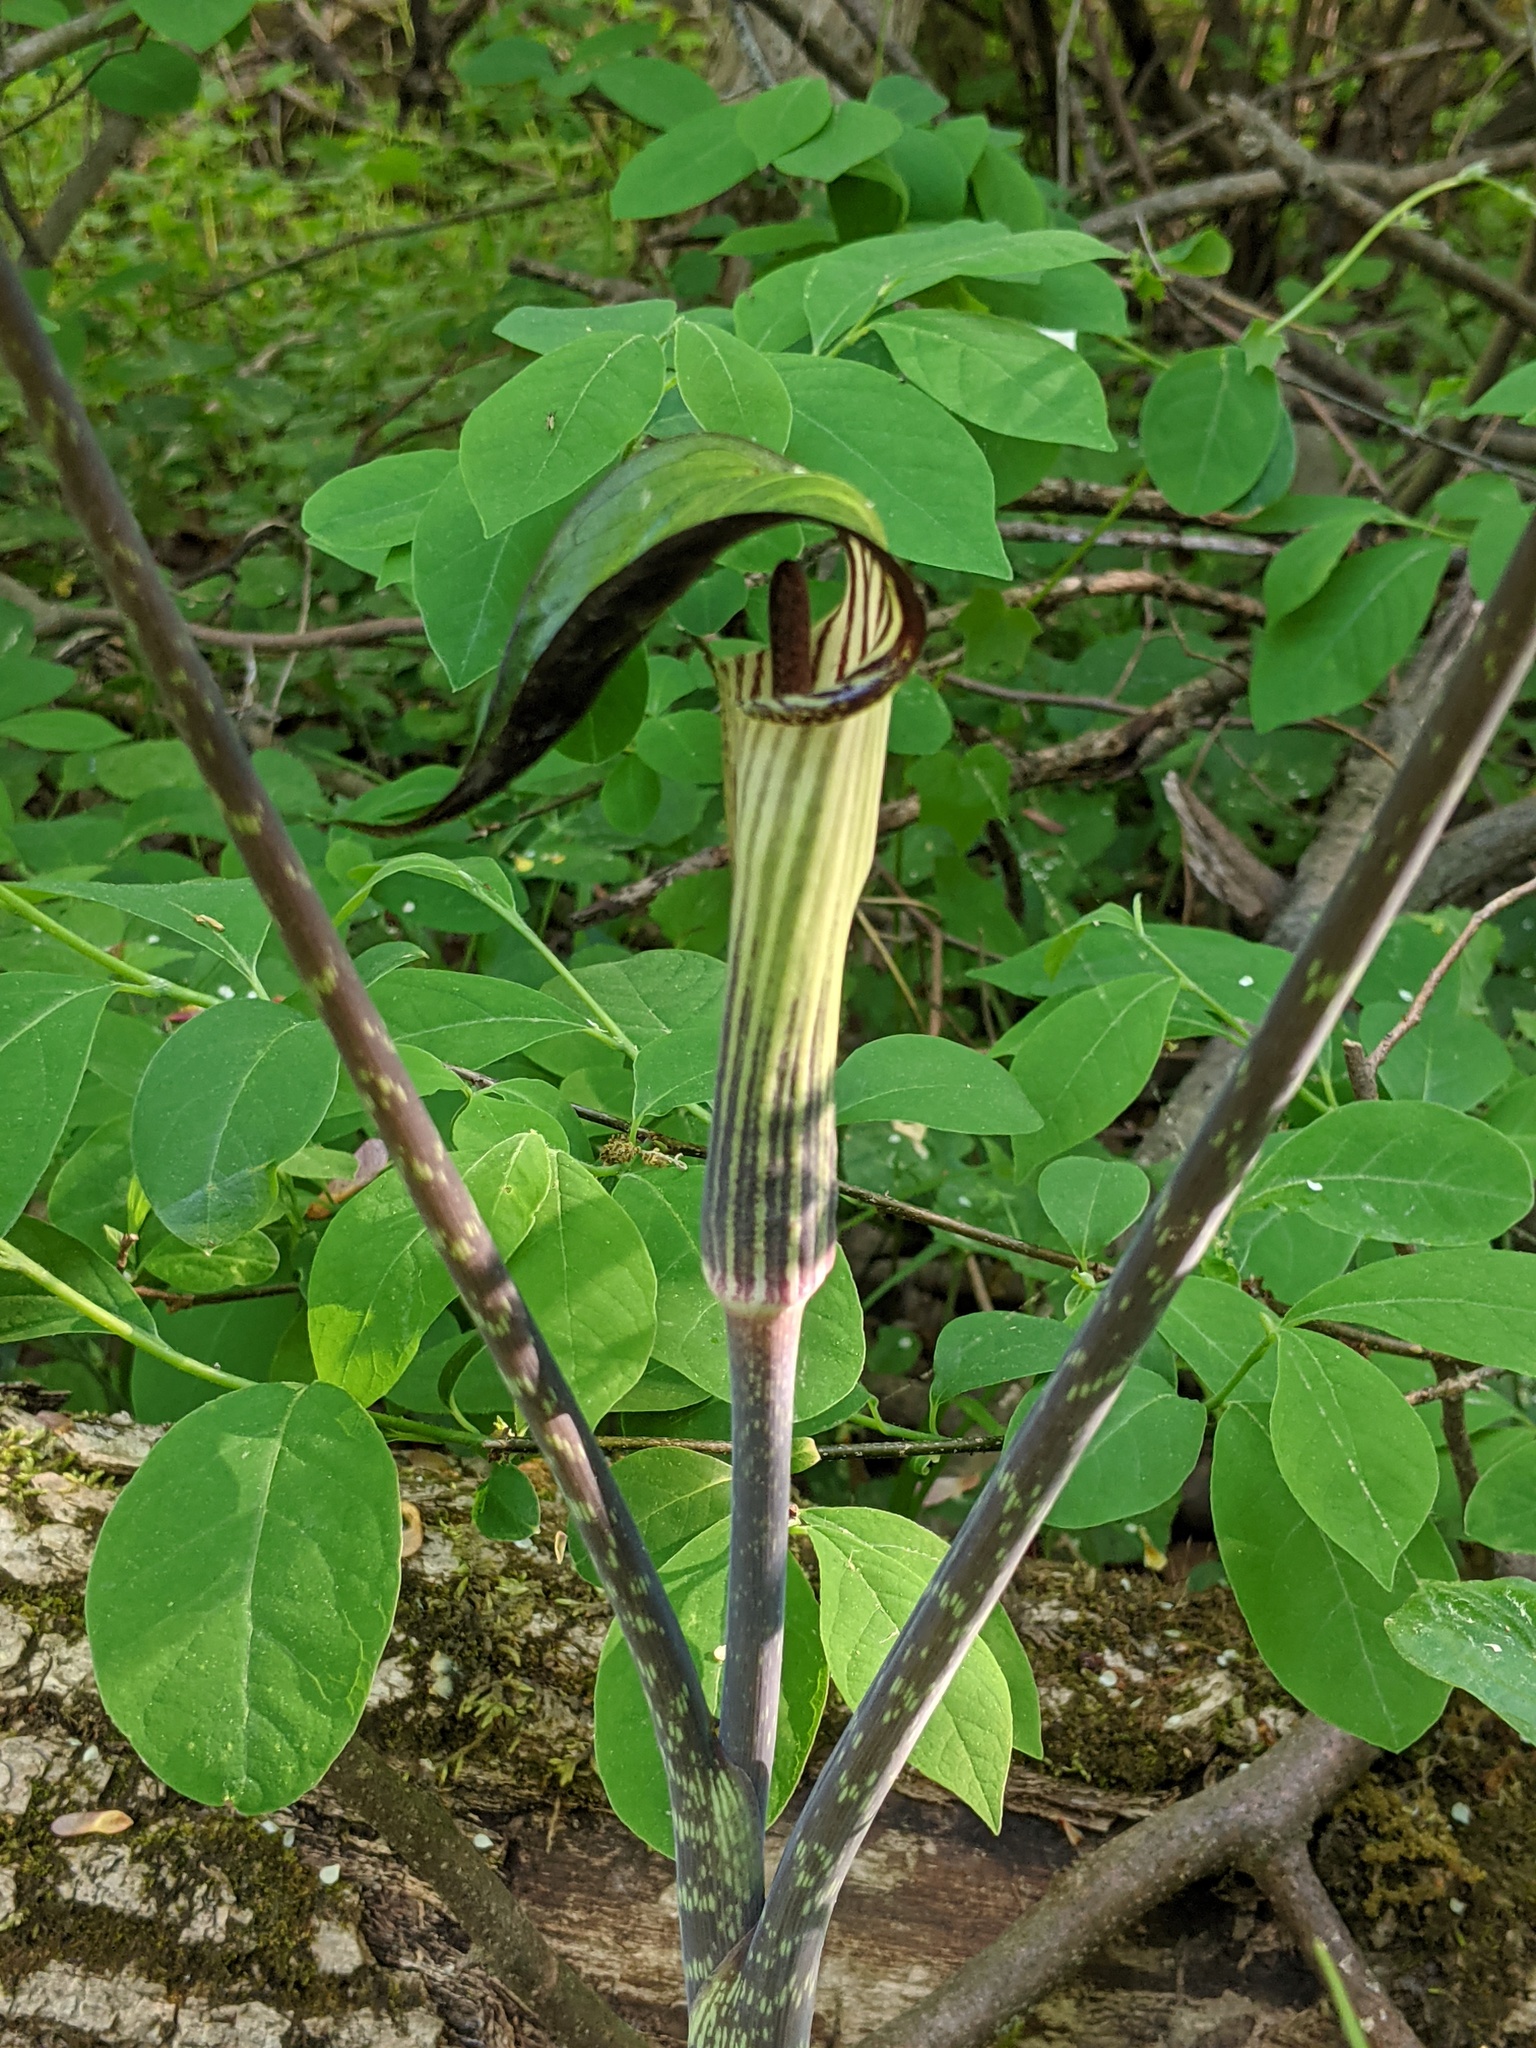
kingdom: Plantae
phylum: Tracheophyta
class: Liliopsida
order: Alismatales
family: Araceae
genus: Arisaema
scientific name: Arisaema triphyllum
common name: Jack-in-the-pulpit
